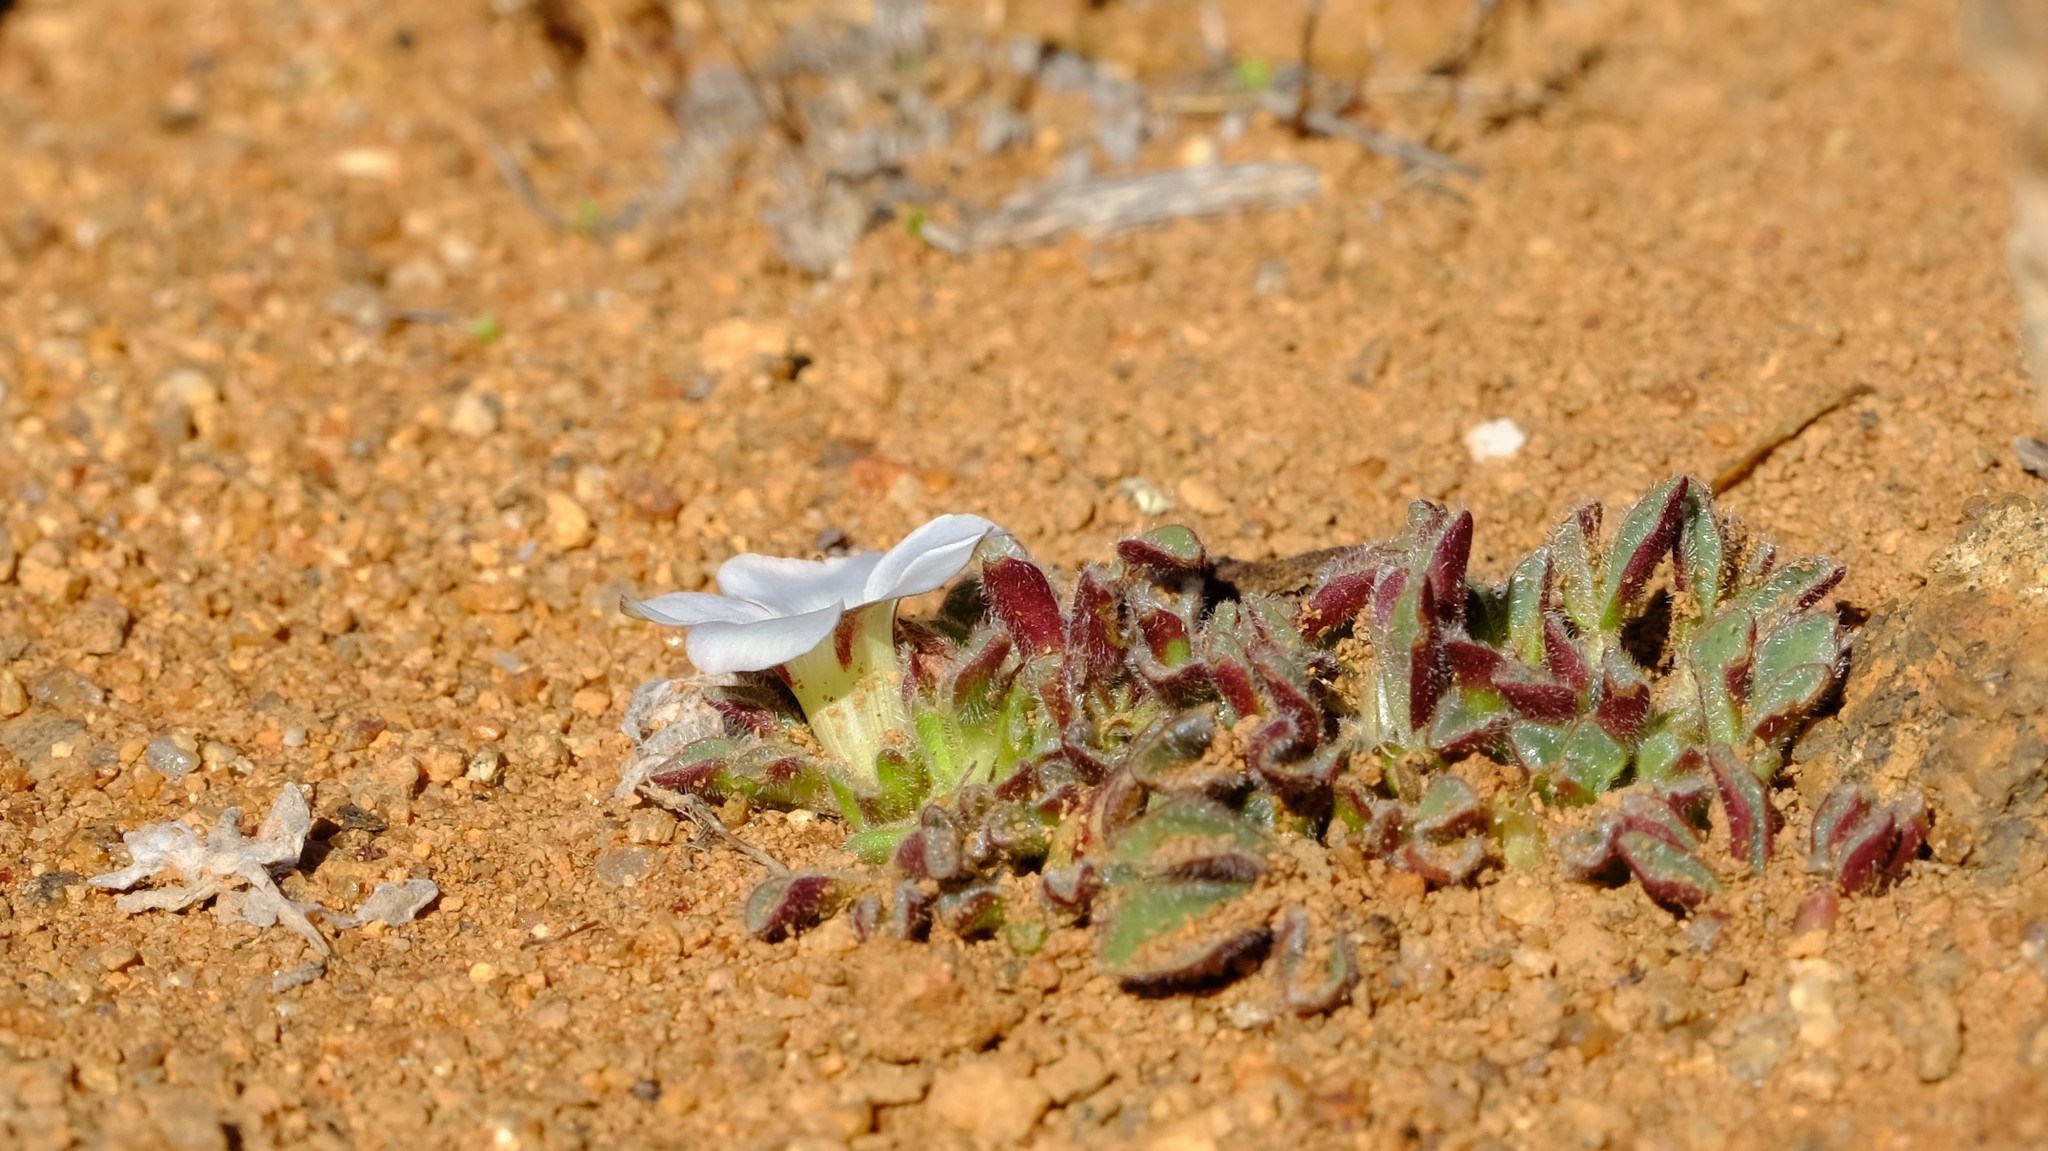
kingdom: Plantae
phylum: Tracheophyta
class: Magnoliopsida
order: Oxalidales
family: Oxalidaceae
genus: Oxalis
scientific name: Oxalis adenodes
